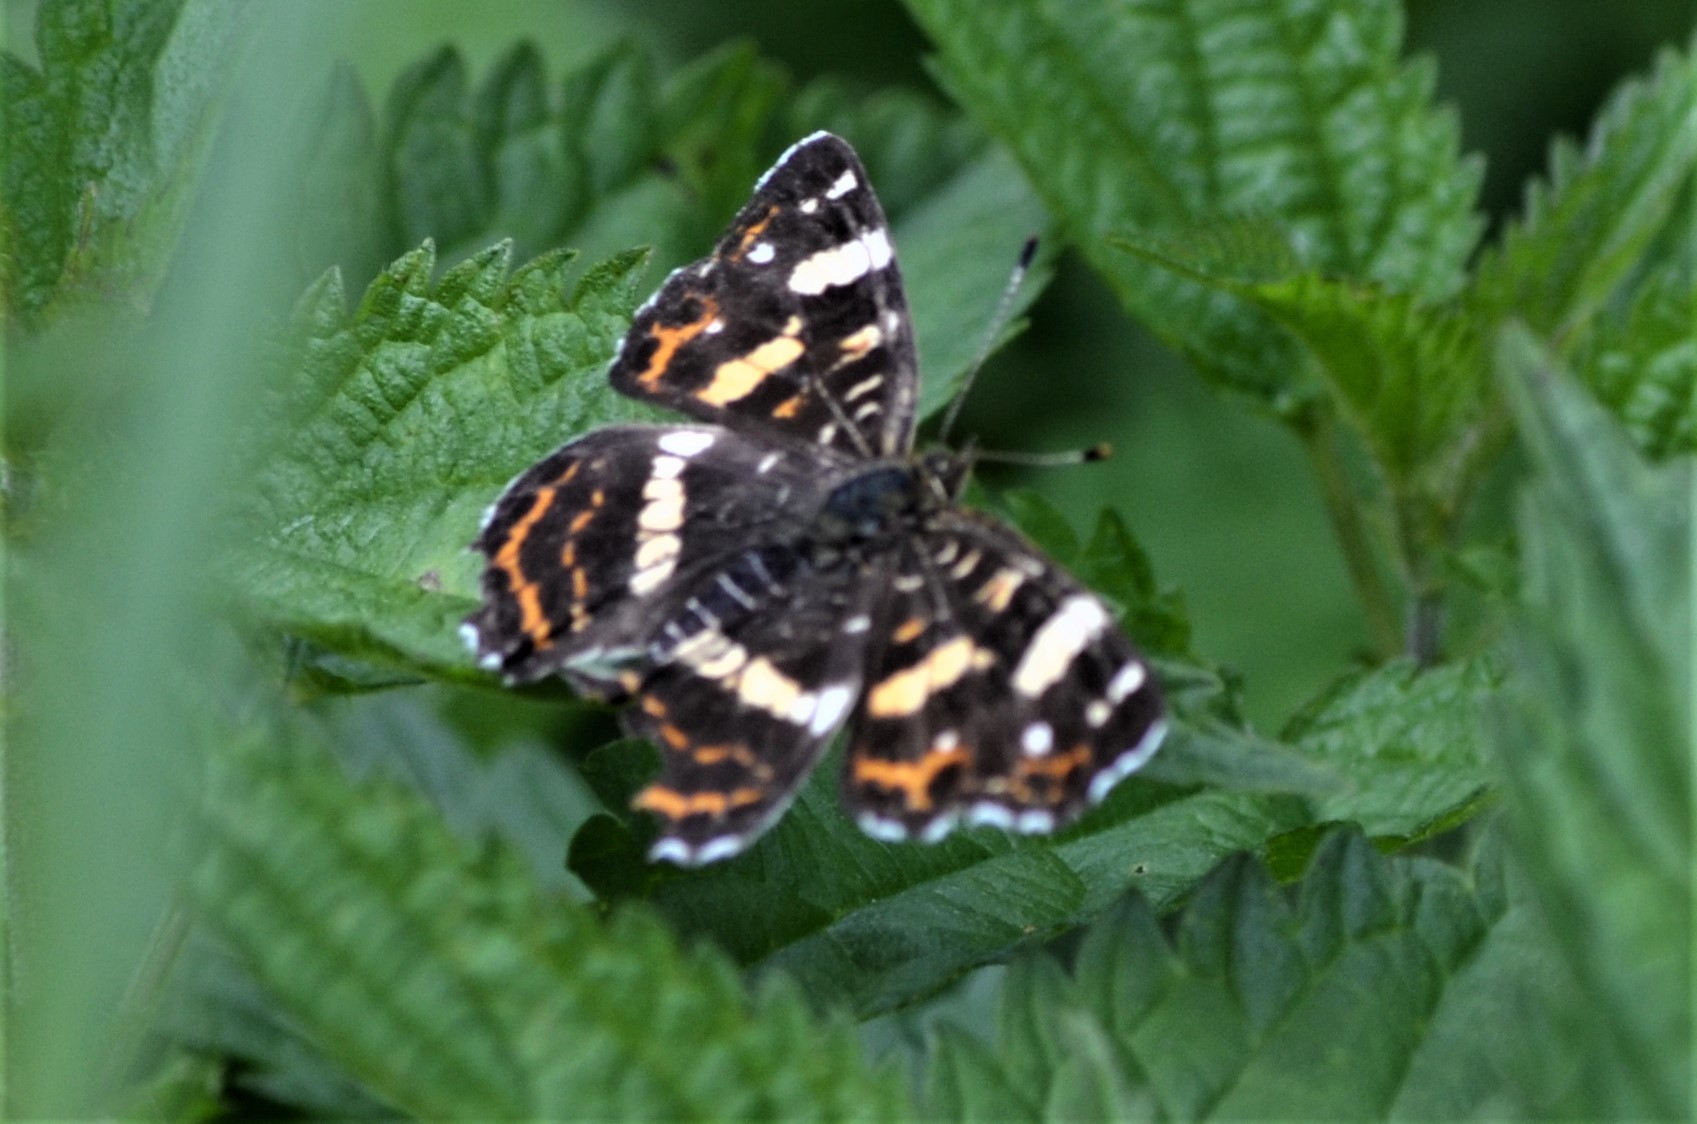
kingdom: Animalia
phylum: Arthropoda
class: Insecta
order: Lepidoptera
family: Nymphalidae
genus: Araschnia
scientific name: Araschnia levana
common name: Map butterfly
